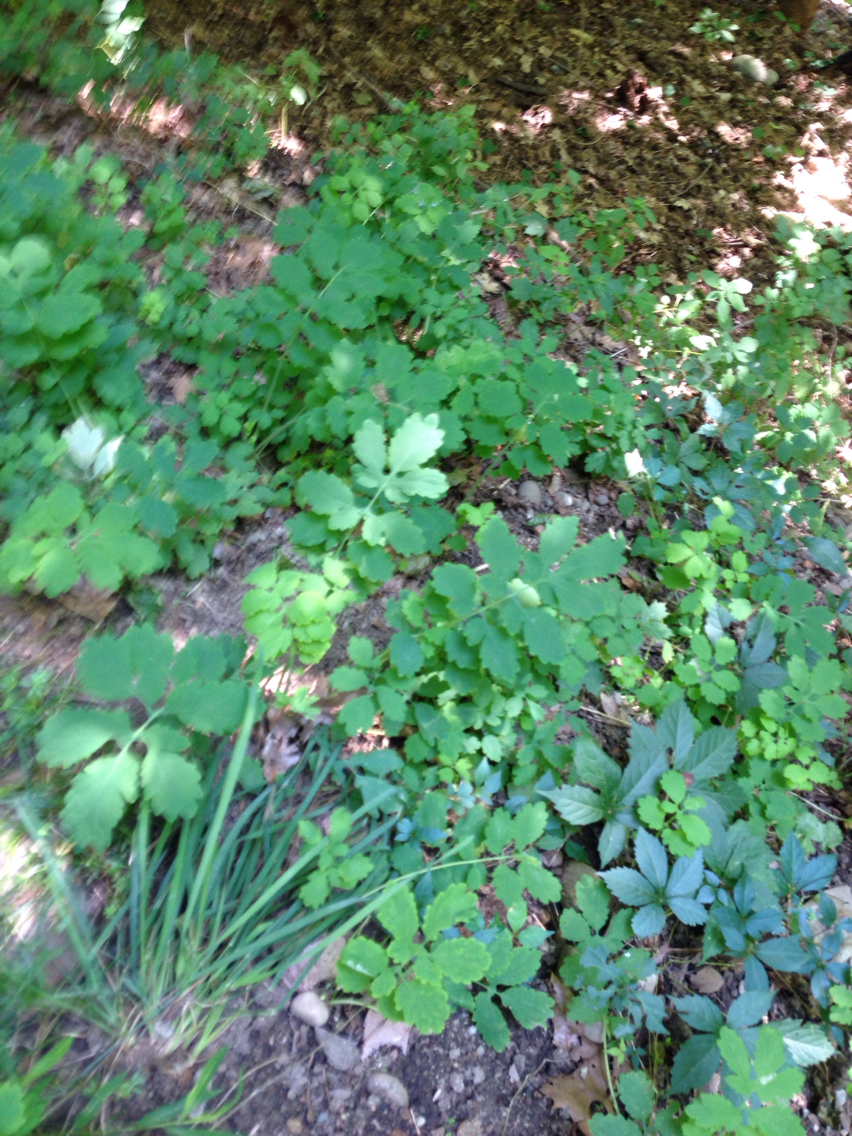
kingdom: Plantae
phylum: Tracheophyta
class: Magnoliopsida
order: Ranunculales
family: Papaveraceae
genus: Chelidonium
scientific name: Chelidonium majus
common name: Greater celandine
